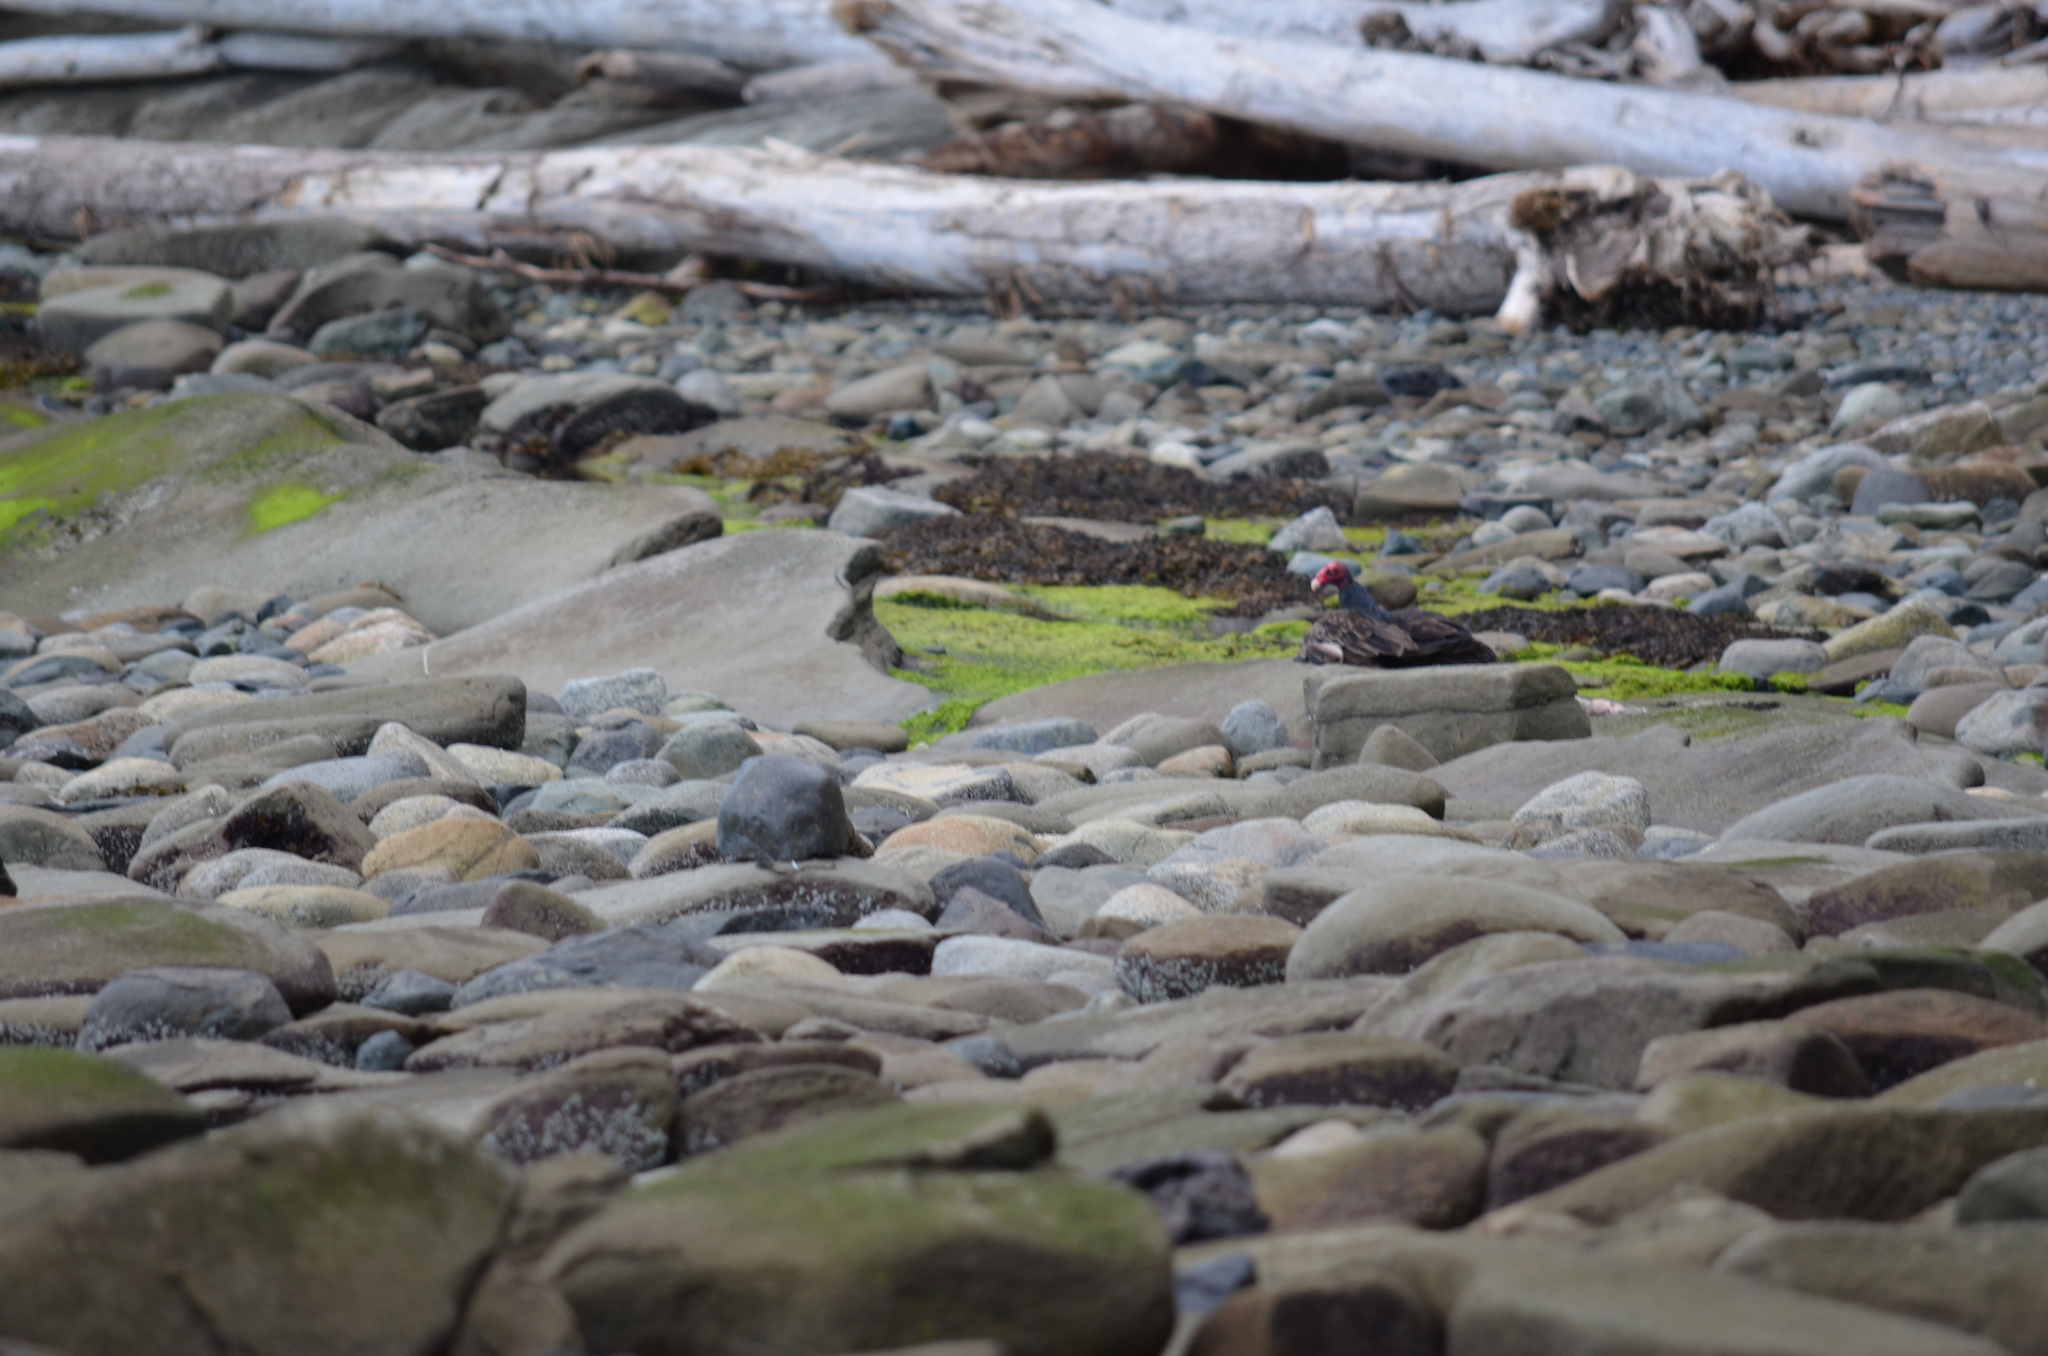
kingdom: Animalia
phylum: Chordata
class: Aves
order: Accipitriformes
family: Cathartidae
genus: Cathartes
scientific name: Cathartes aura
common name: Turkey vulture
